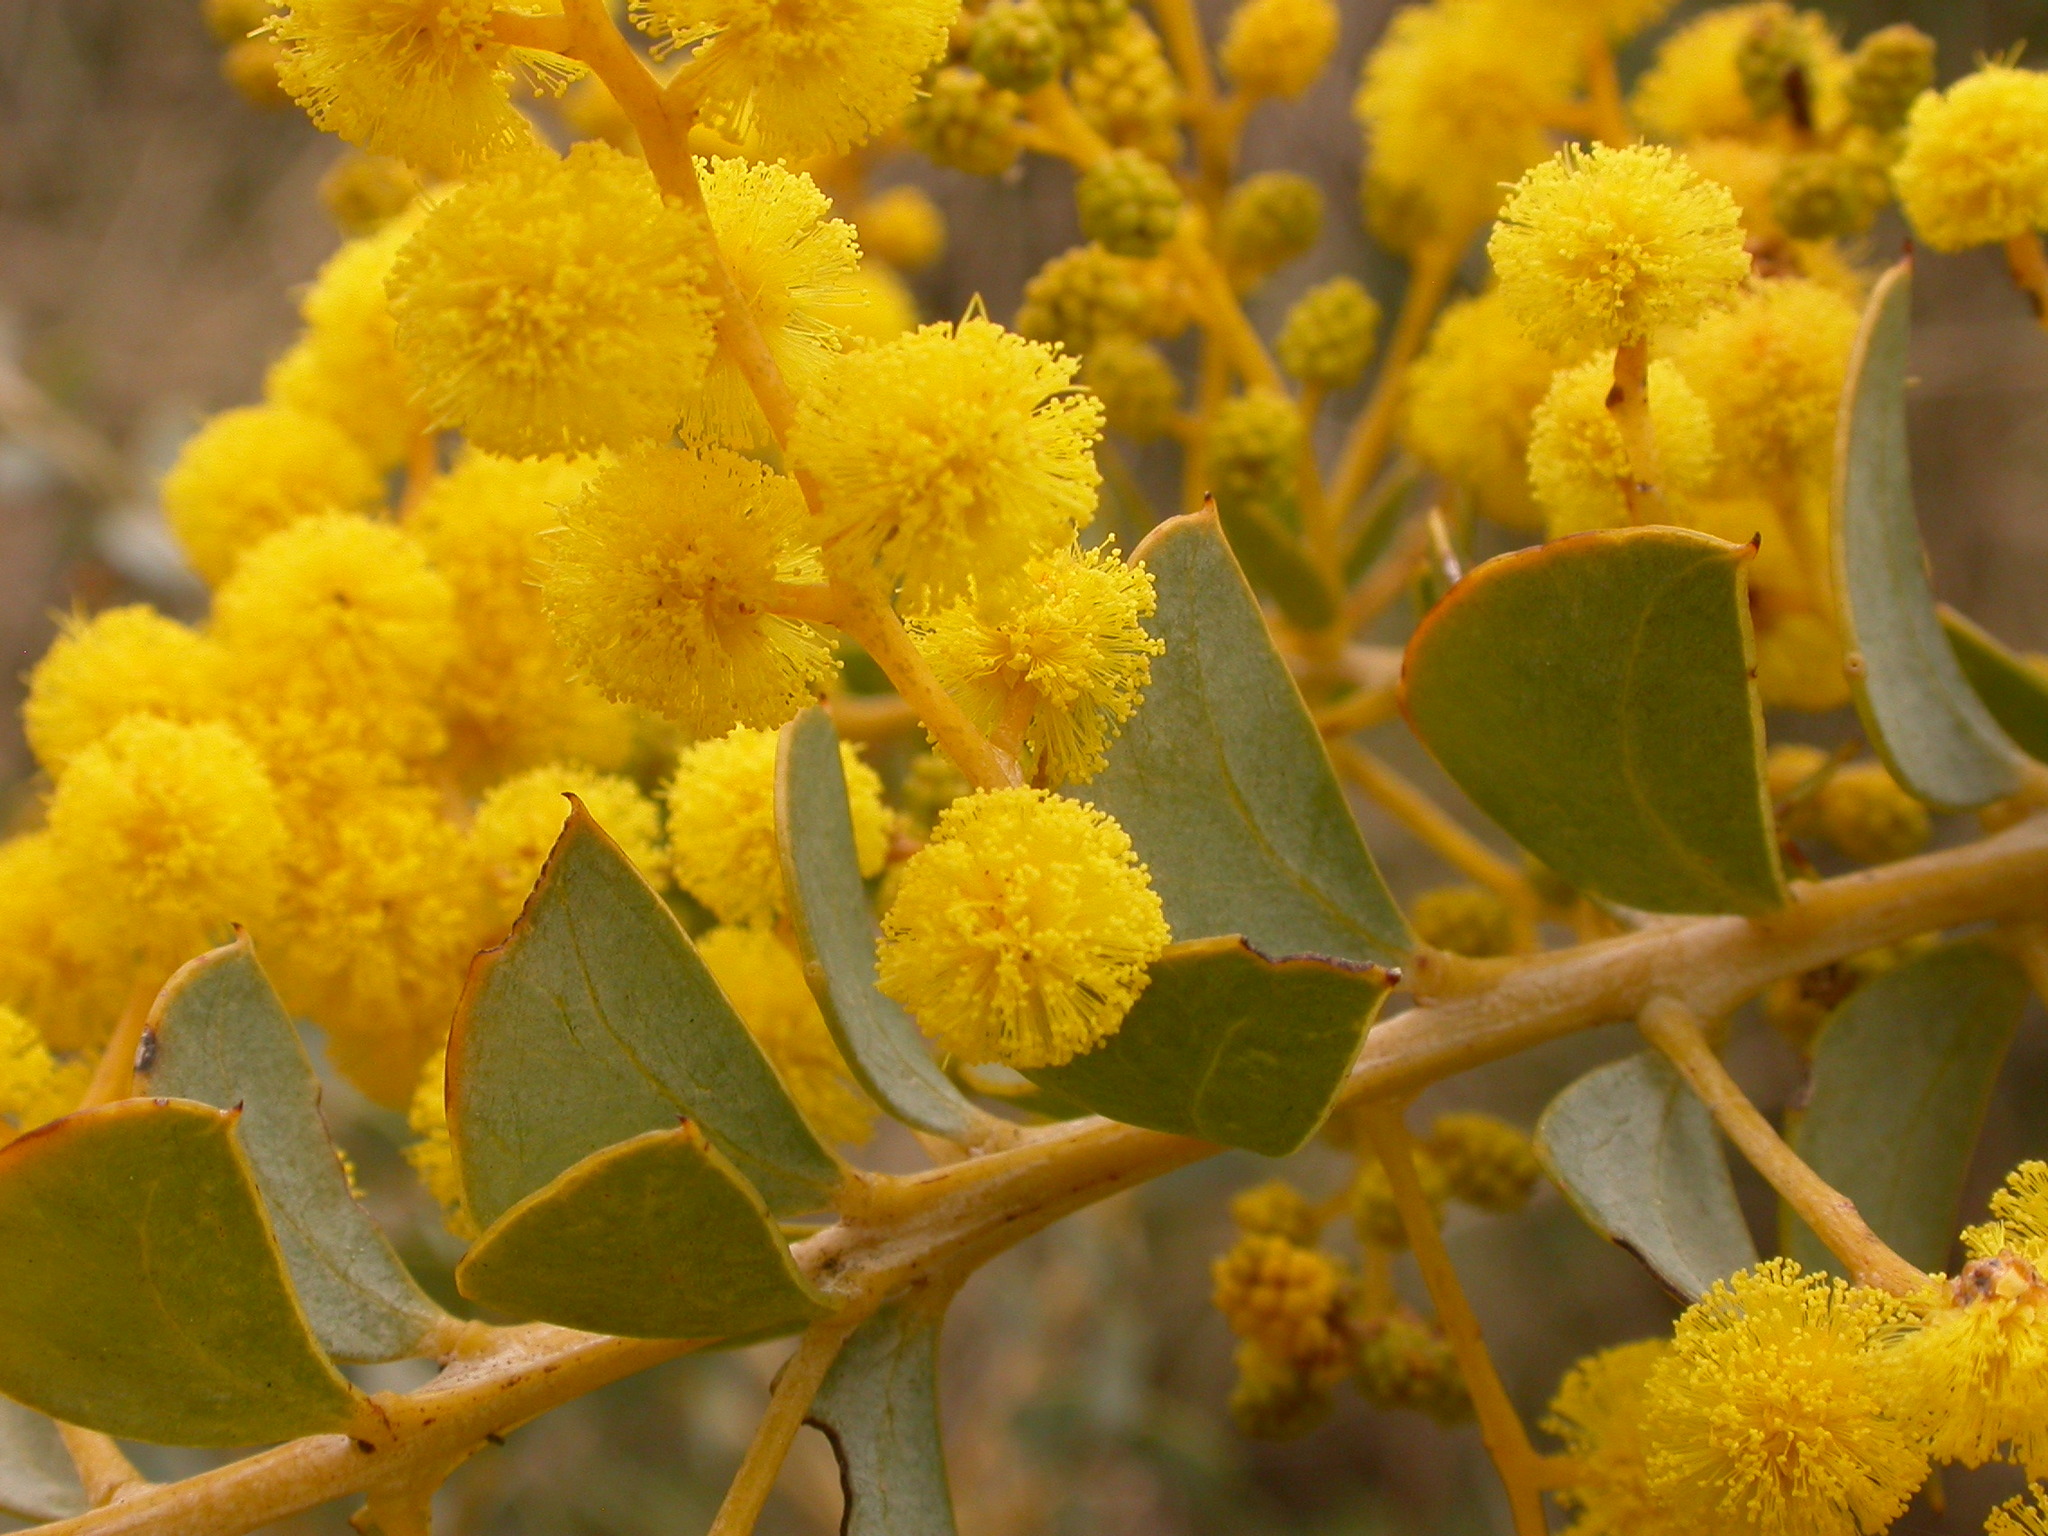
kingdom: Plantae
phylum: Tracheophyta
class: Magnoliopsida
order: Fabales
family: Fabaceae
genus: Acacia
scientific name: Acacia cultriformis
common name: Knife acacia
